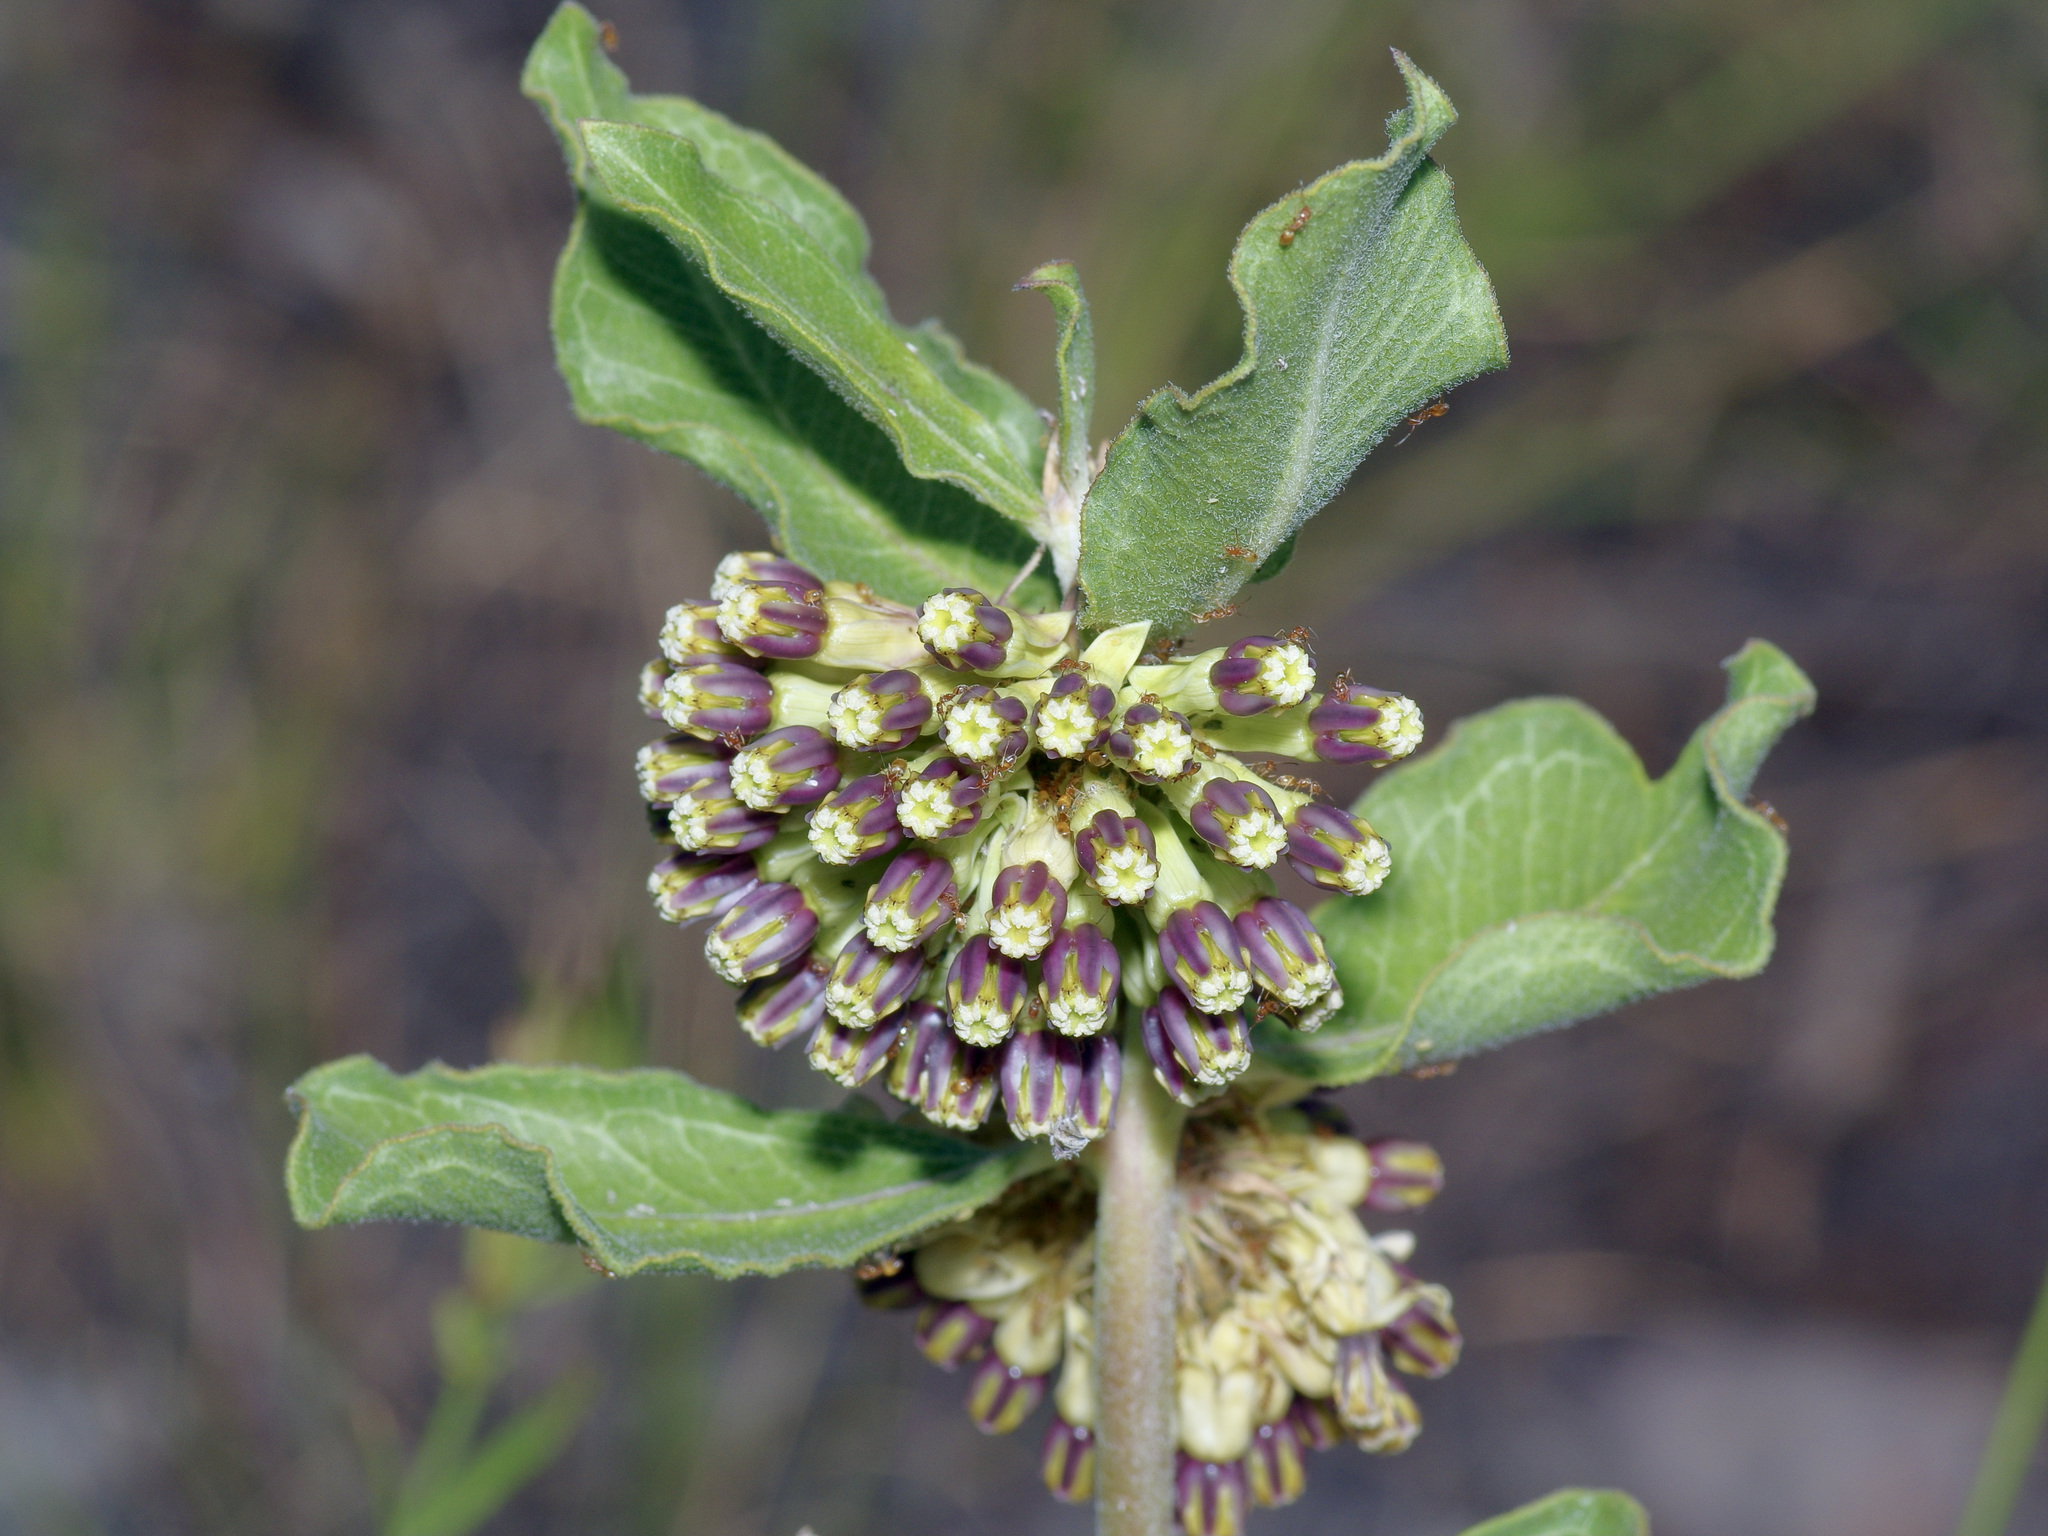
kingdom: Plantae
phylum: Tracheophyta
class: Magnoliopsida
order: Gentianales
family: Apocynaceae
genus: Asclepias
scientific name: Asclepias viridiflora
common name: Green comet milkweed
